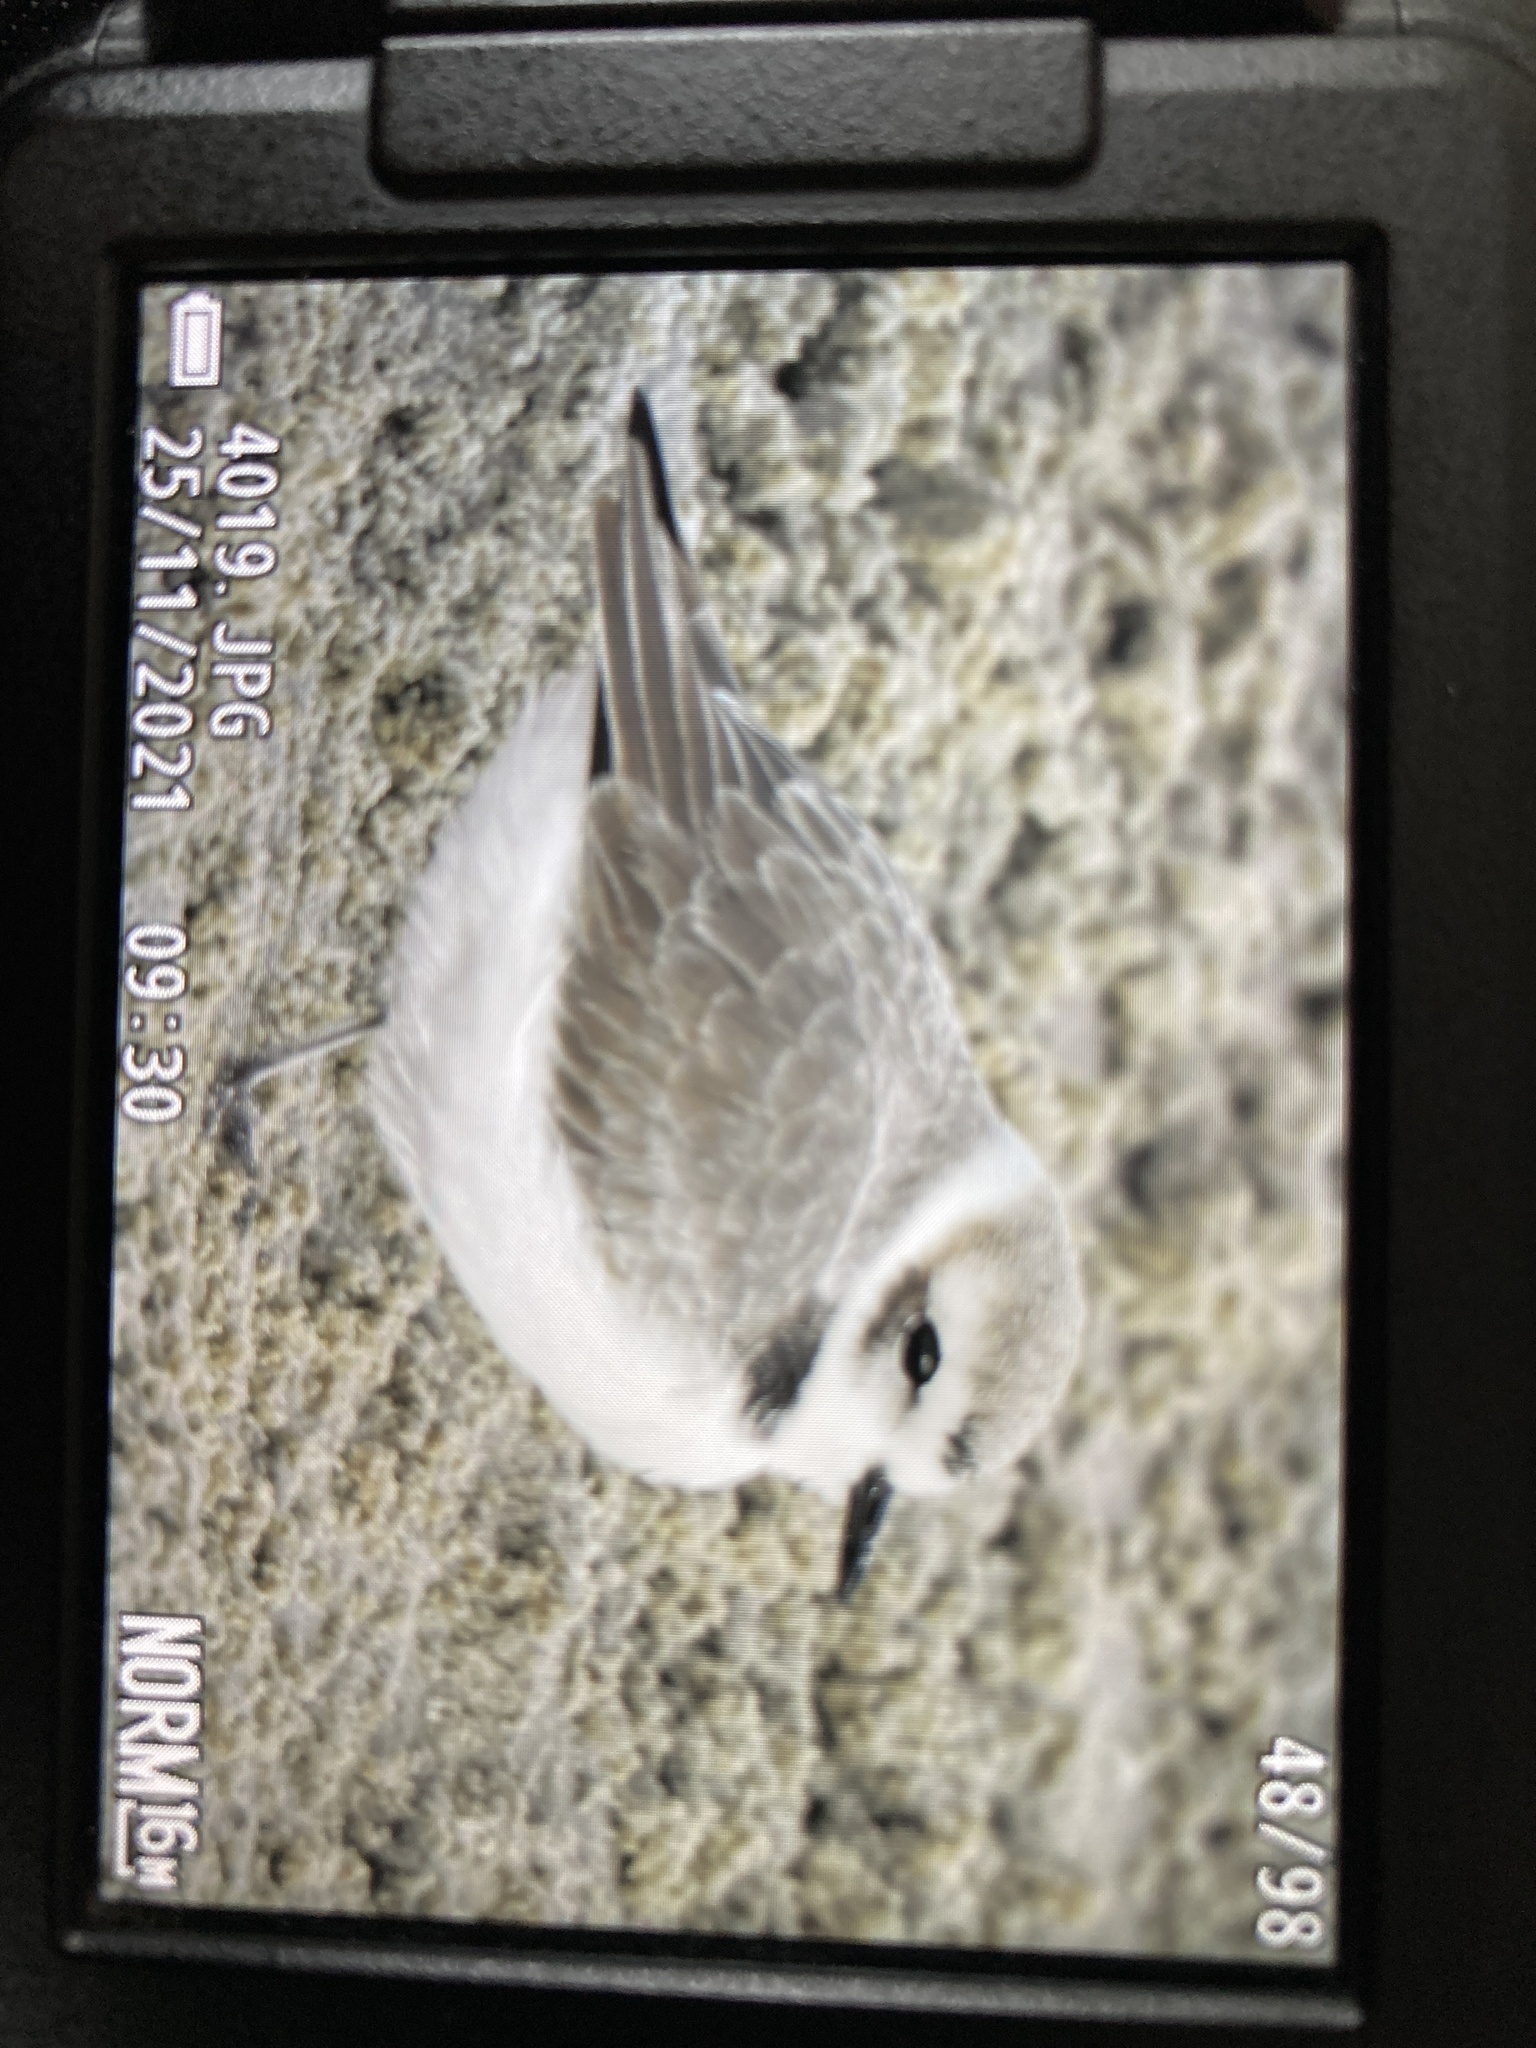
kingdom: Animalia
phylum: Chordata
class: Aves
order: Charadriiformes
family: Charadriidae
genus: Anarhynchus
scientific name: Anarhynchus
